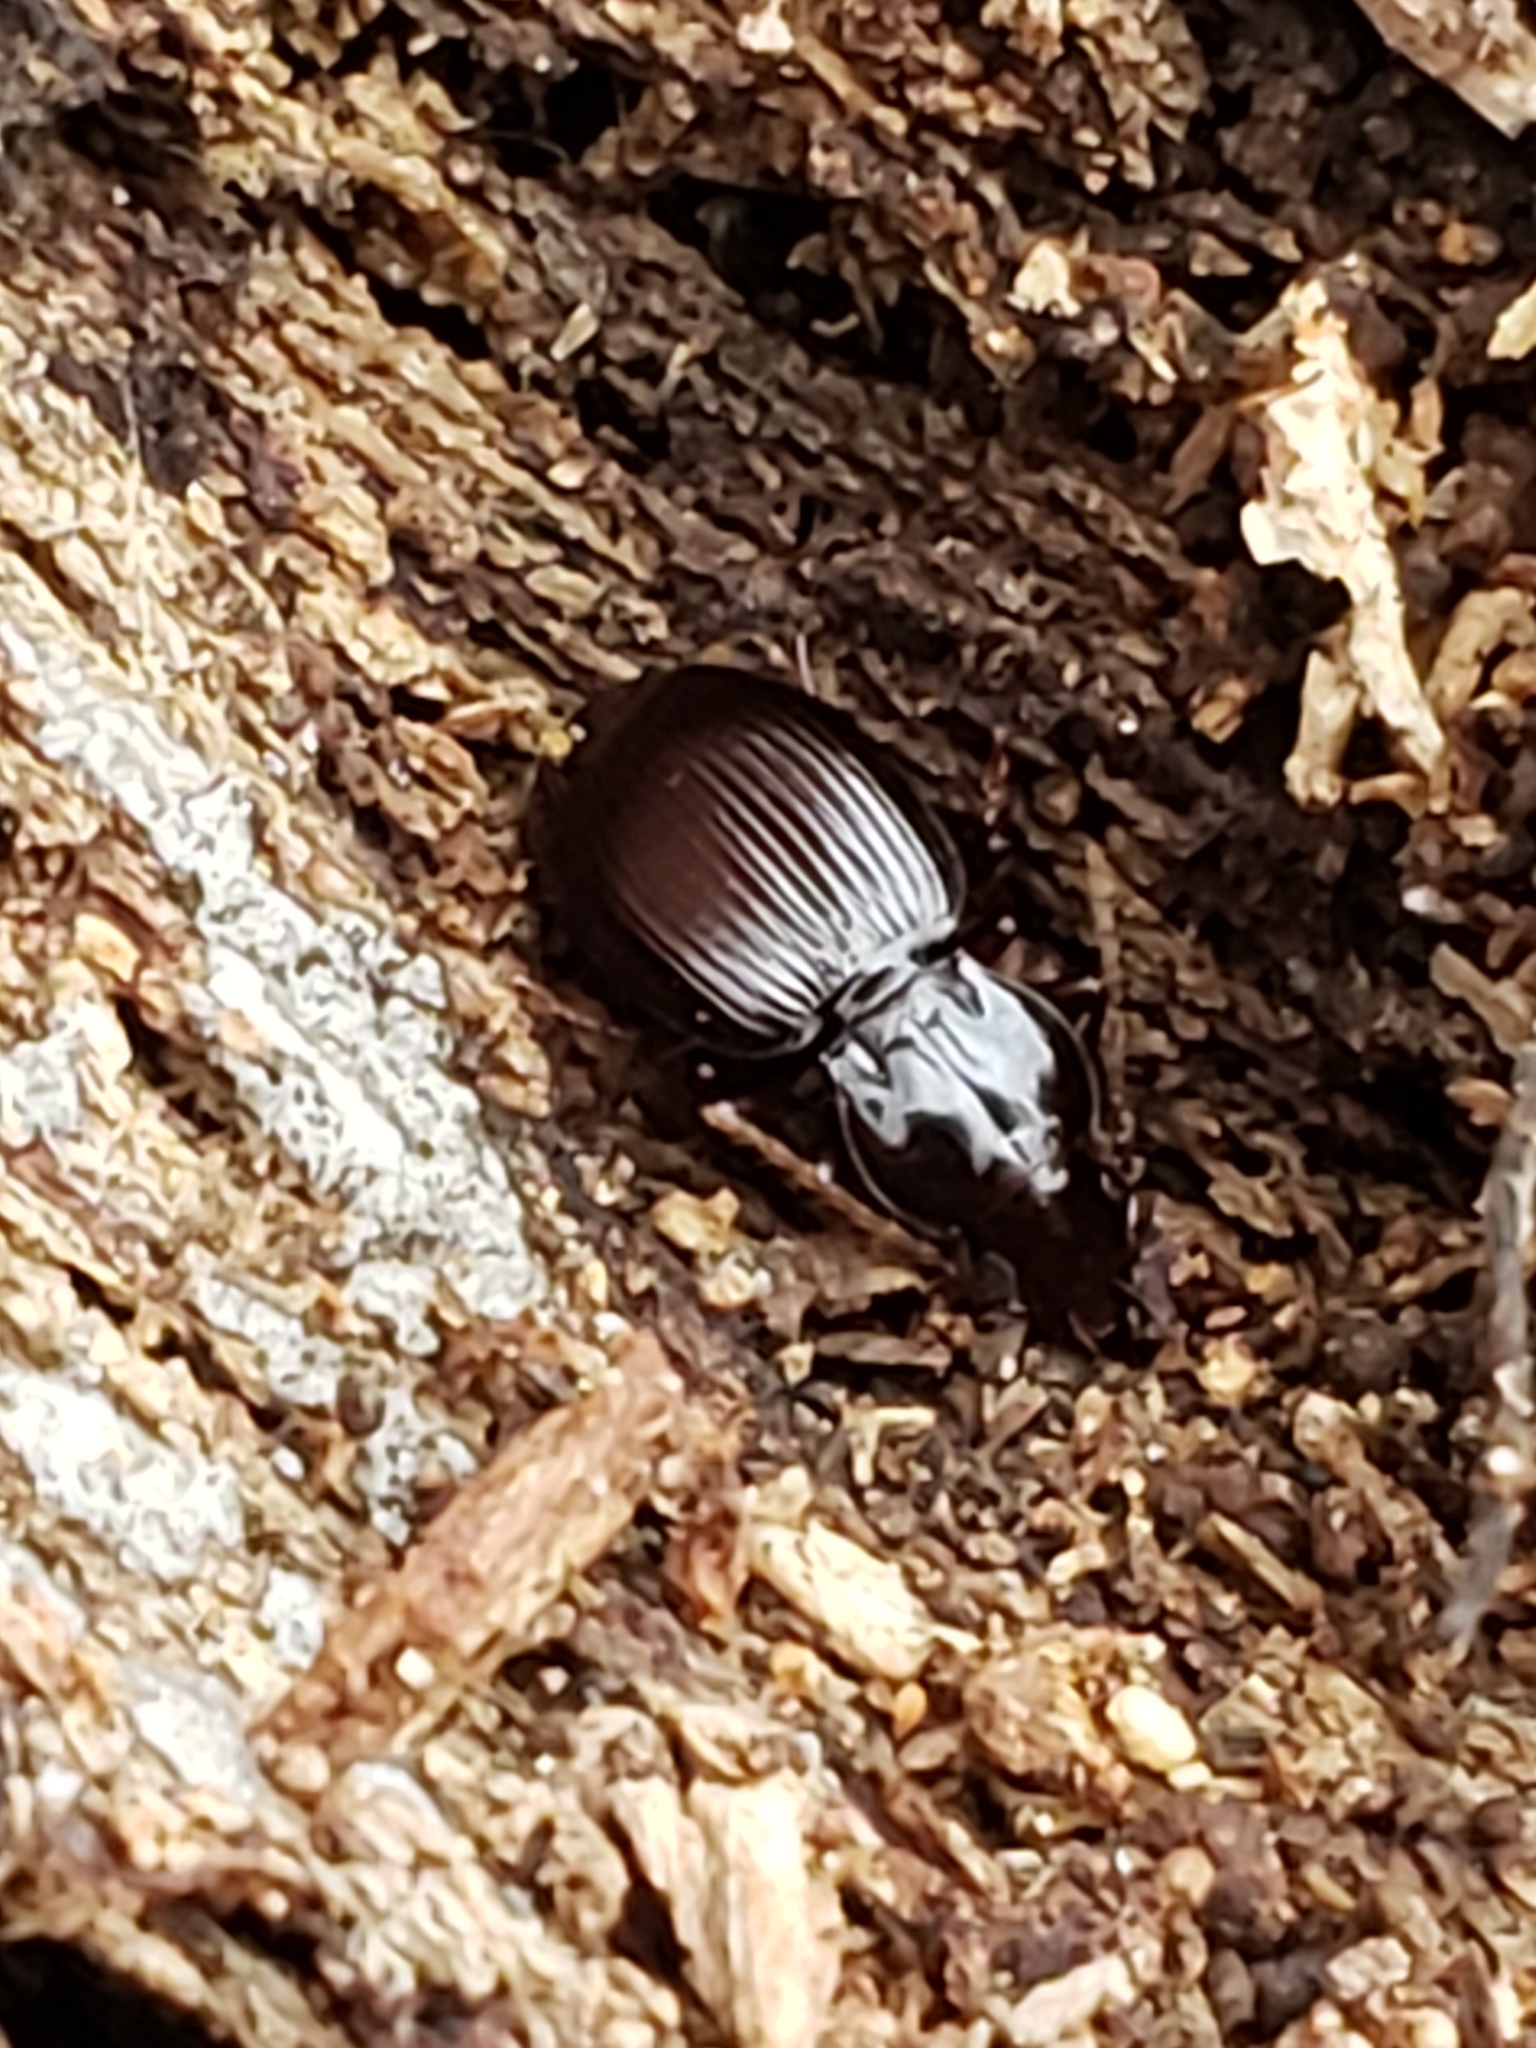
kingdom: Animalia
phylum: Arthropoda
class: Insecta
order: Coleoptera
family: Carabidae
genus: Gastrellarius
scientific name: Gastrellarius honestus
